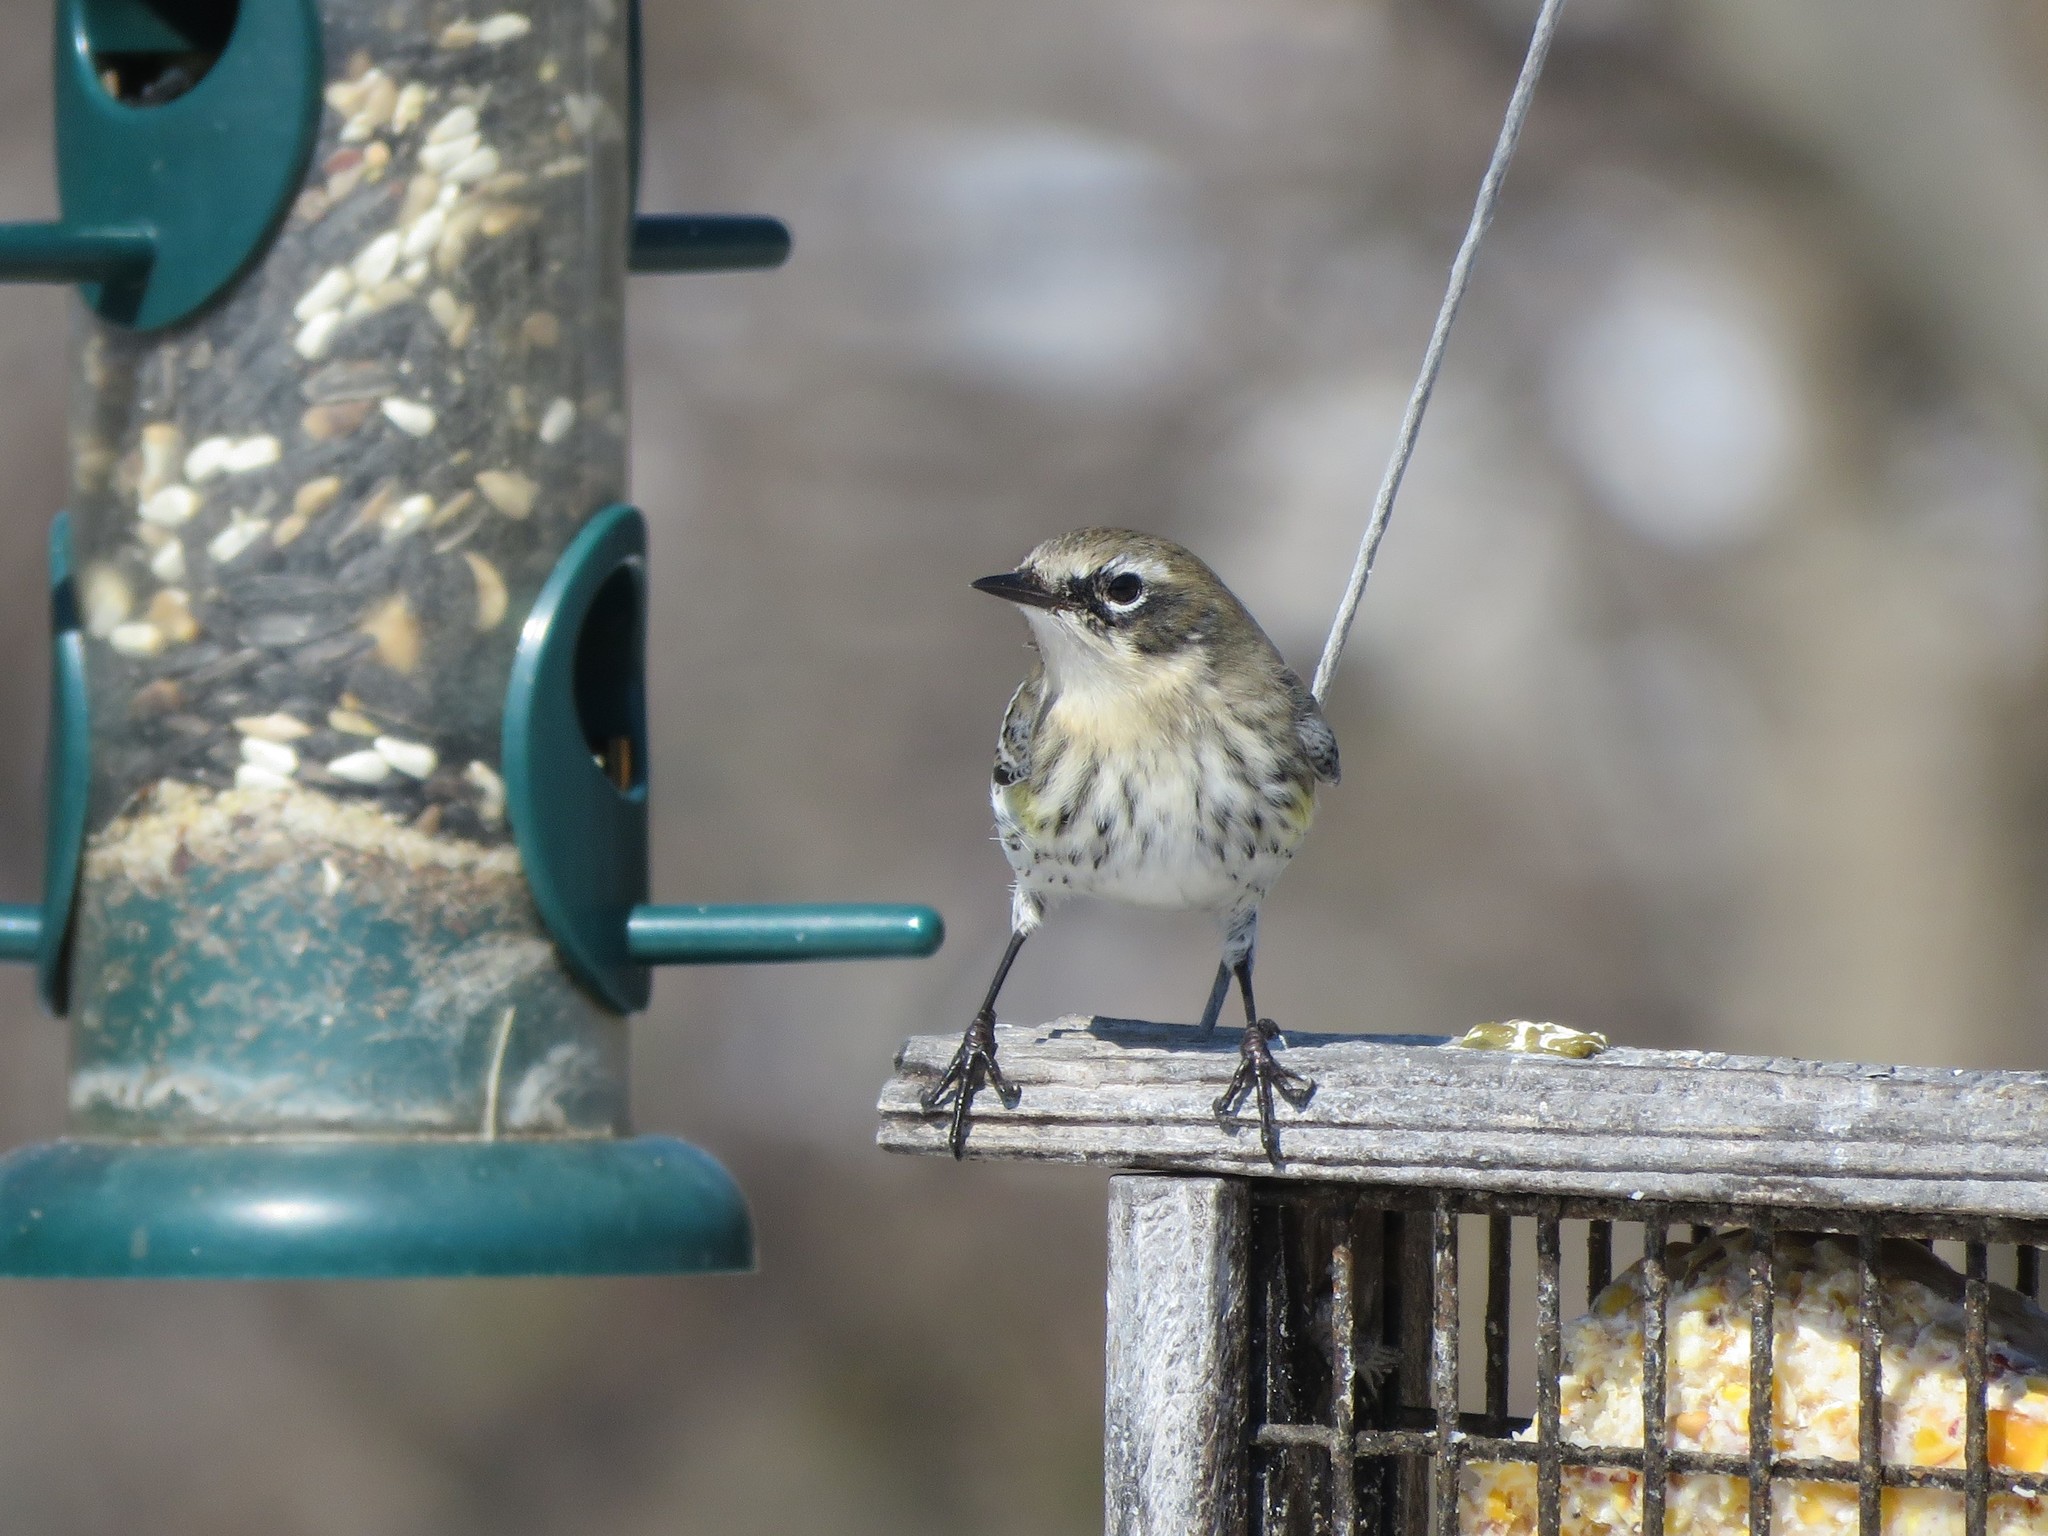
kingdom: Animalia
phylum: Chordata
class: Aves
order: Passeriformes
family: Parulidae
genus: Setophaga
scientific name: Setophaga coronata
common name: Myrtle warbler
